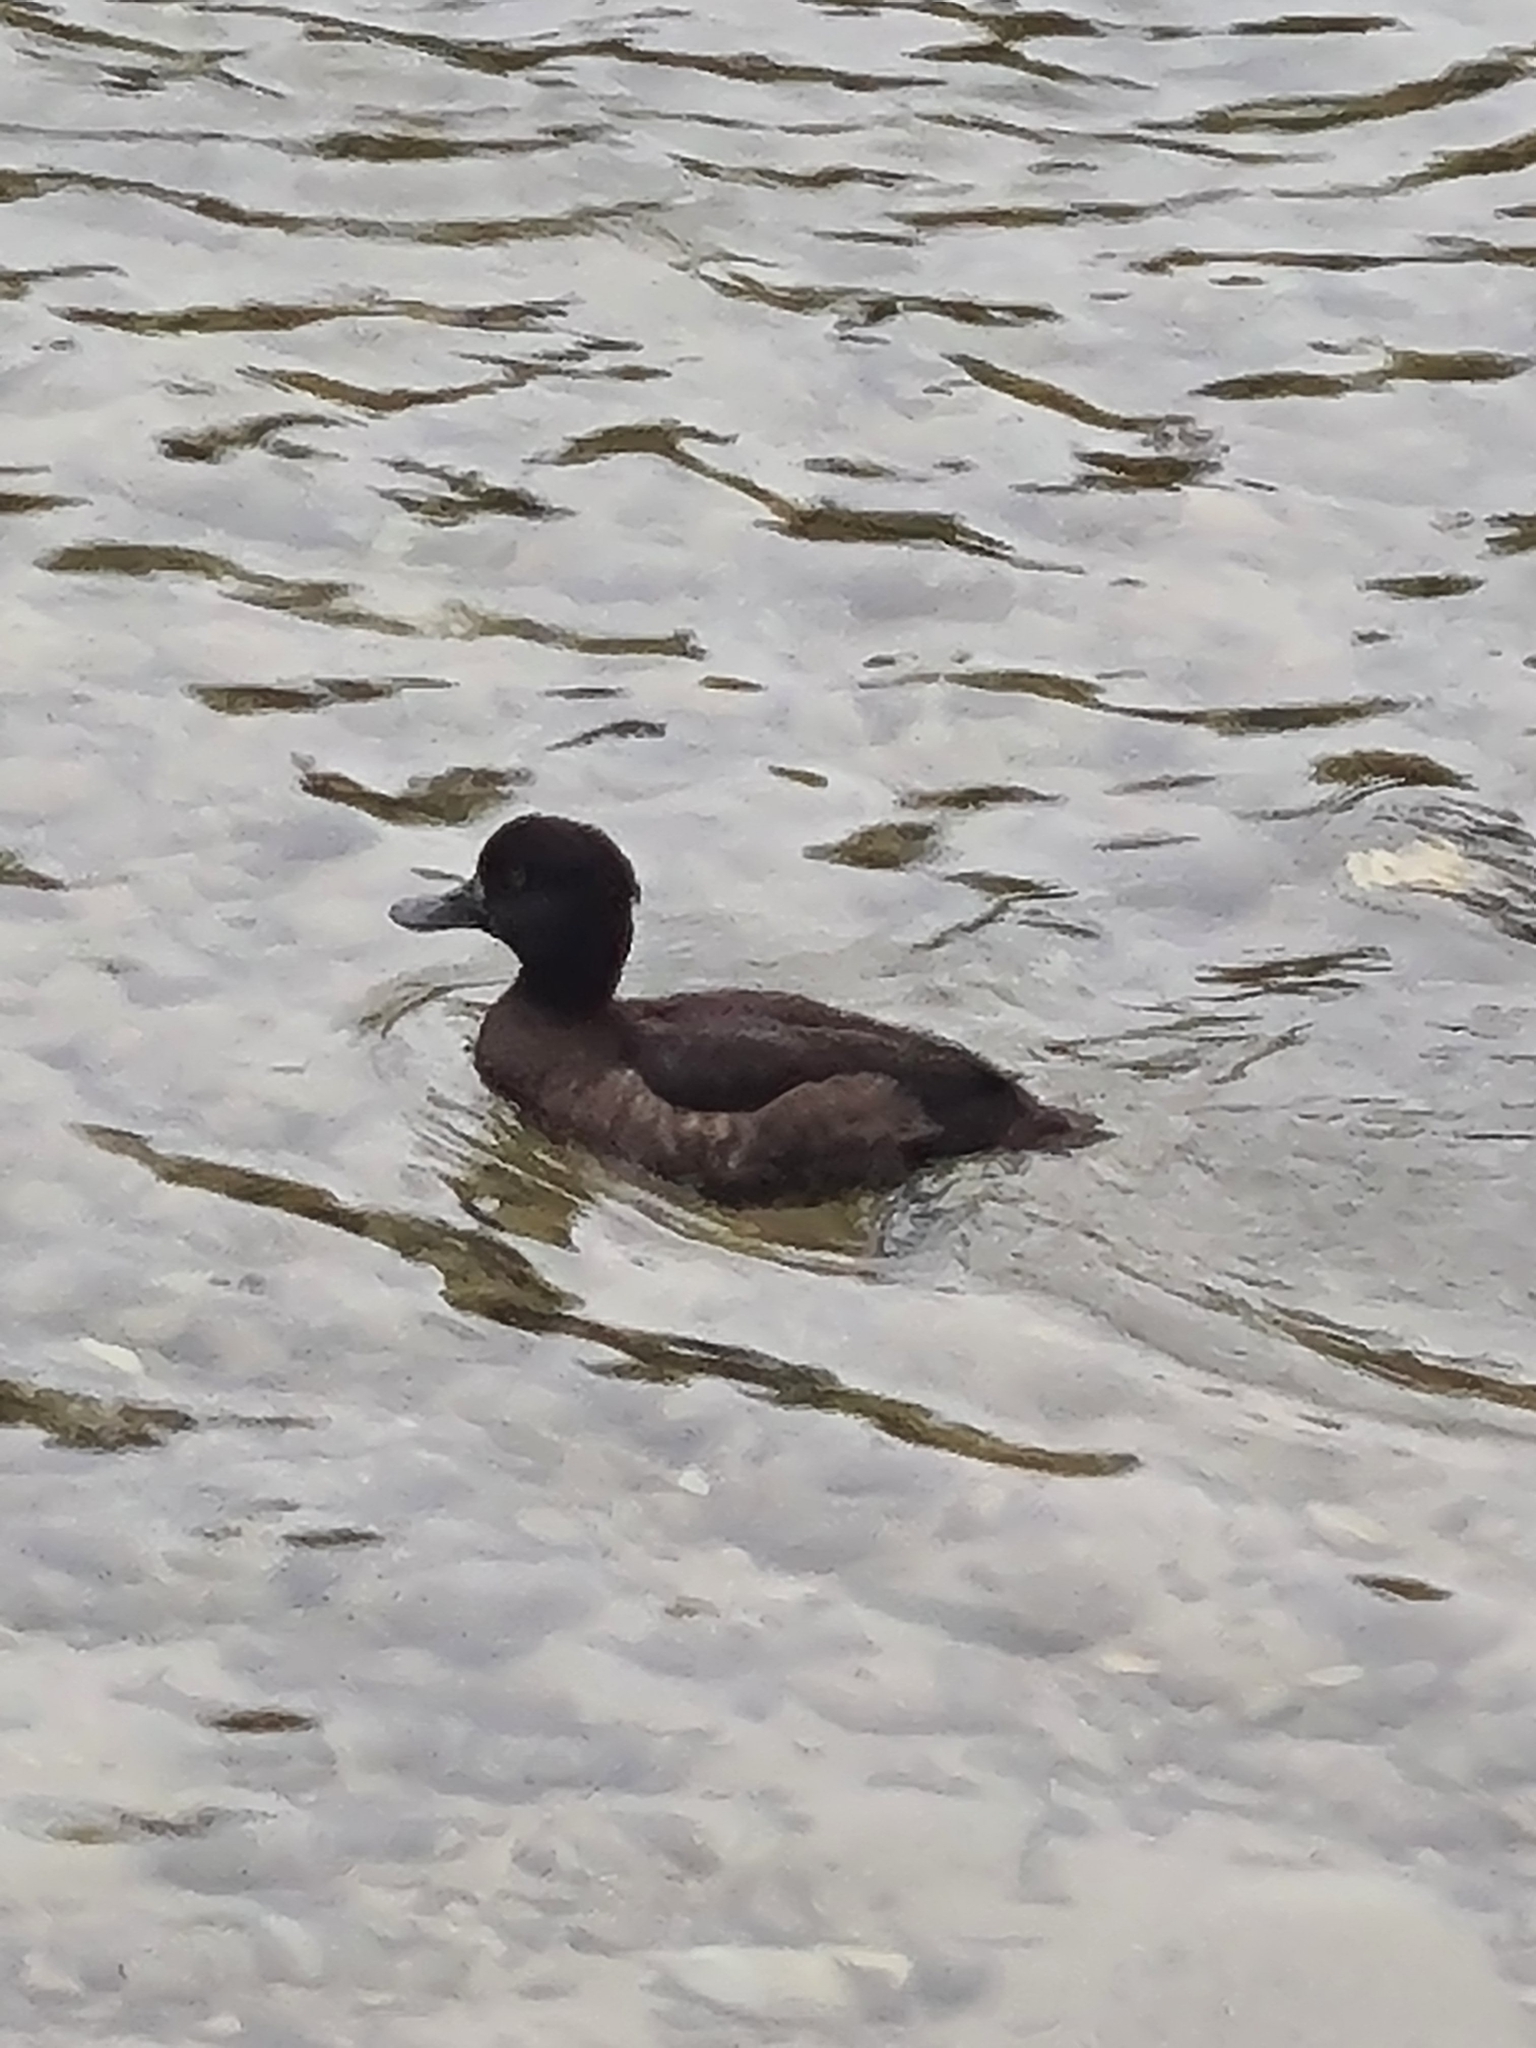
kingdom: Animalia
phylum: Chordata
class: Aves
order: Anseriformes
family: Anatidae
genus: Aythya
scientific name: Aythya fuligula
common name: Tufted duck
